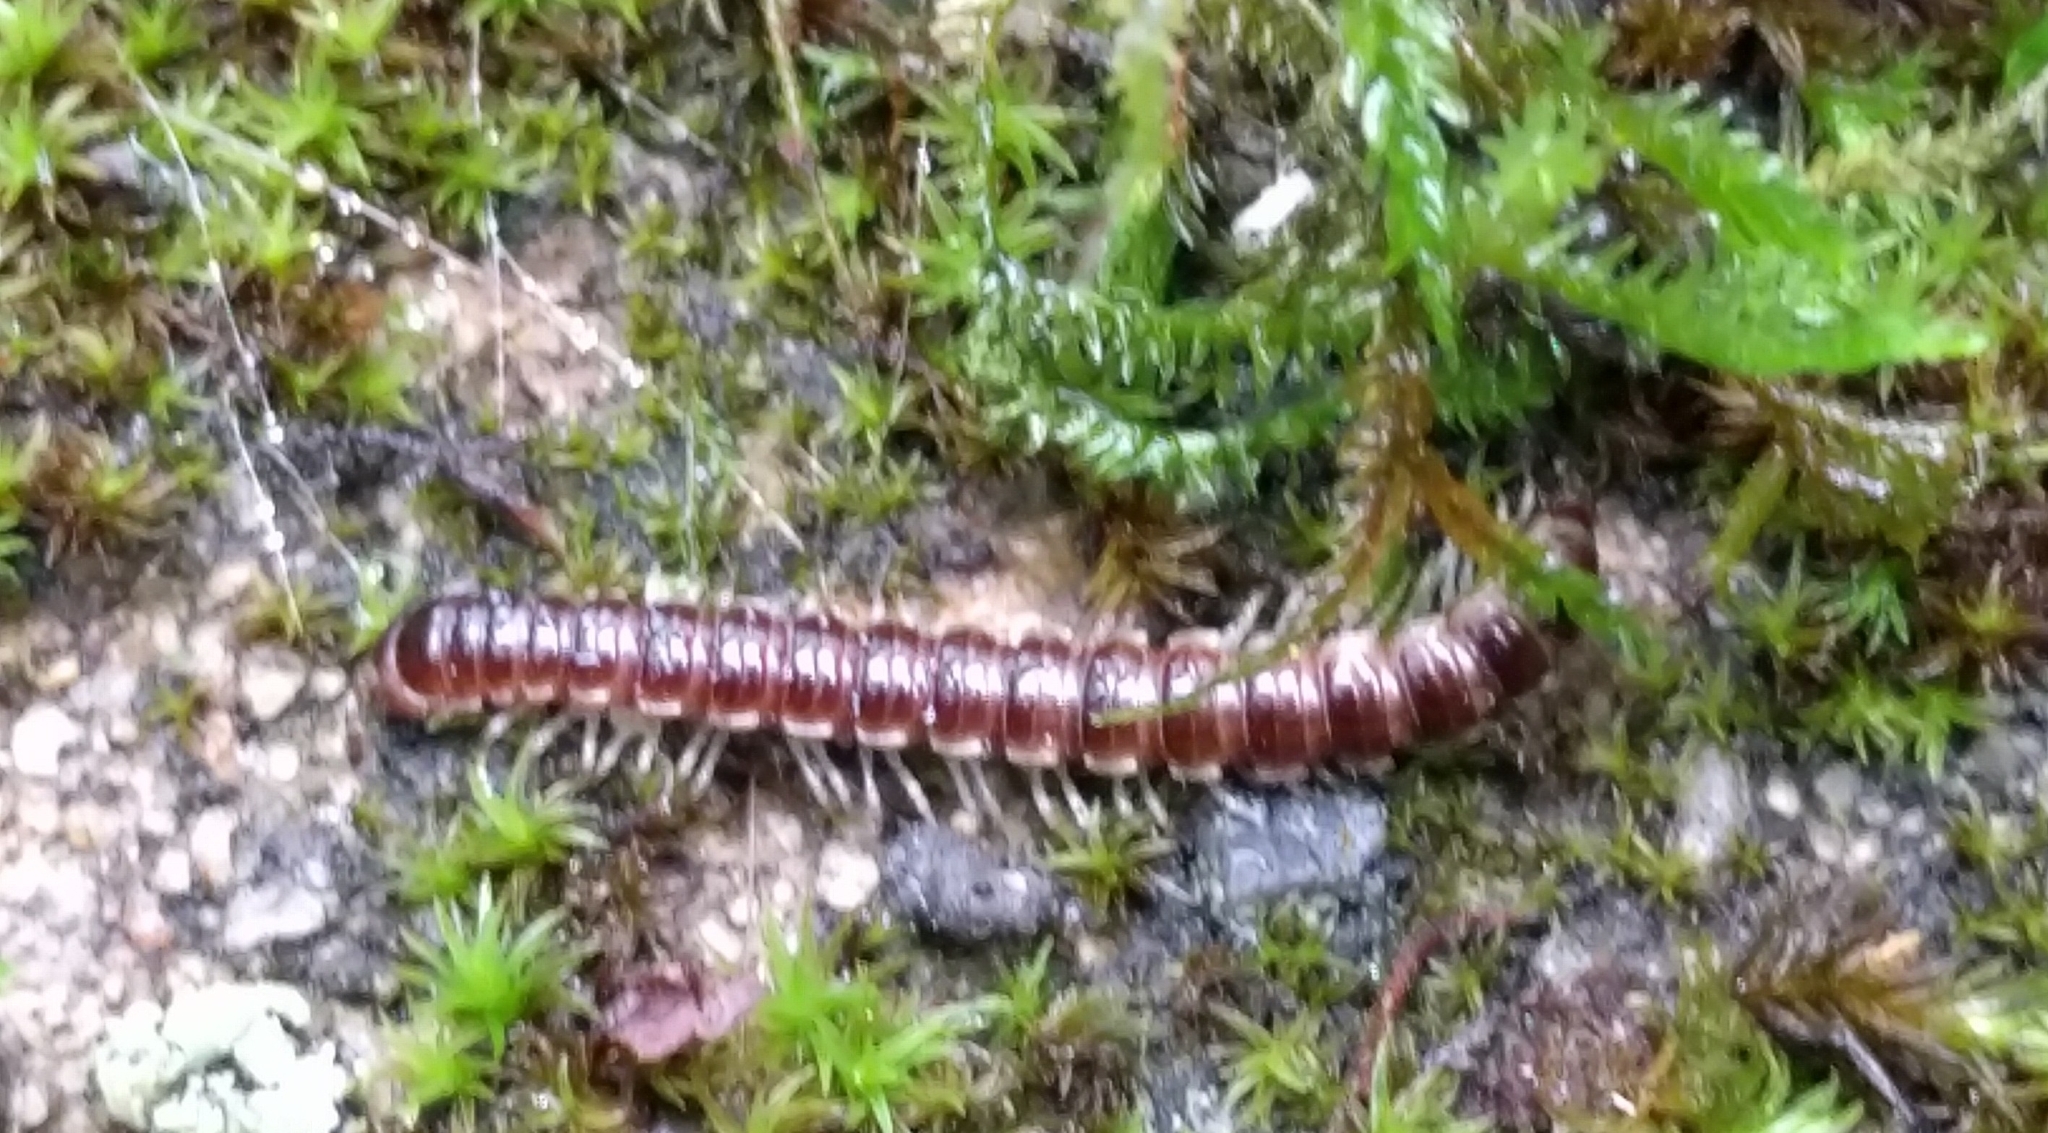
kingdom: Animalia
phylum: Arthropoda
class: Diplopoda
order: Polydesmida
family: Paradoxosomatidae
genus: Oxidus
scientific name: Oxidus gracilis
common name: Greenhouse millipede
